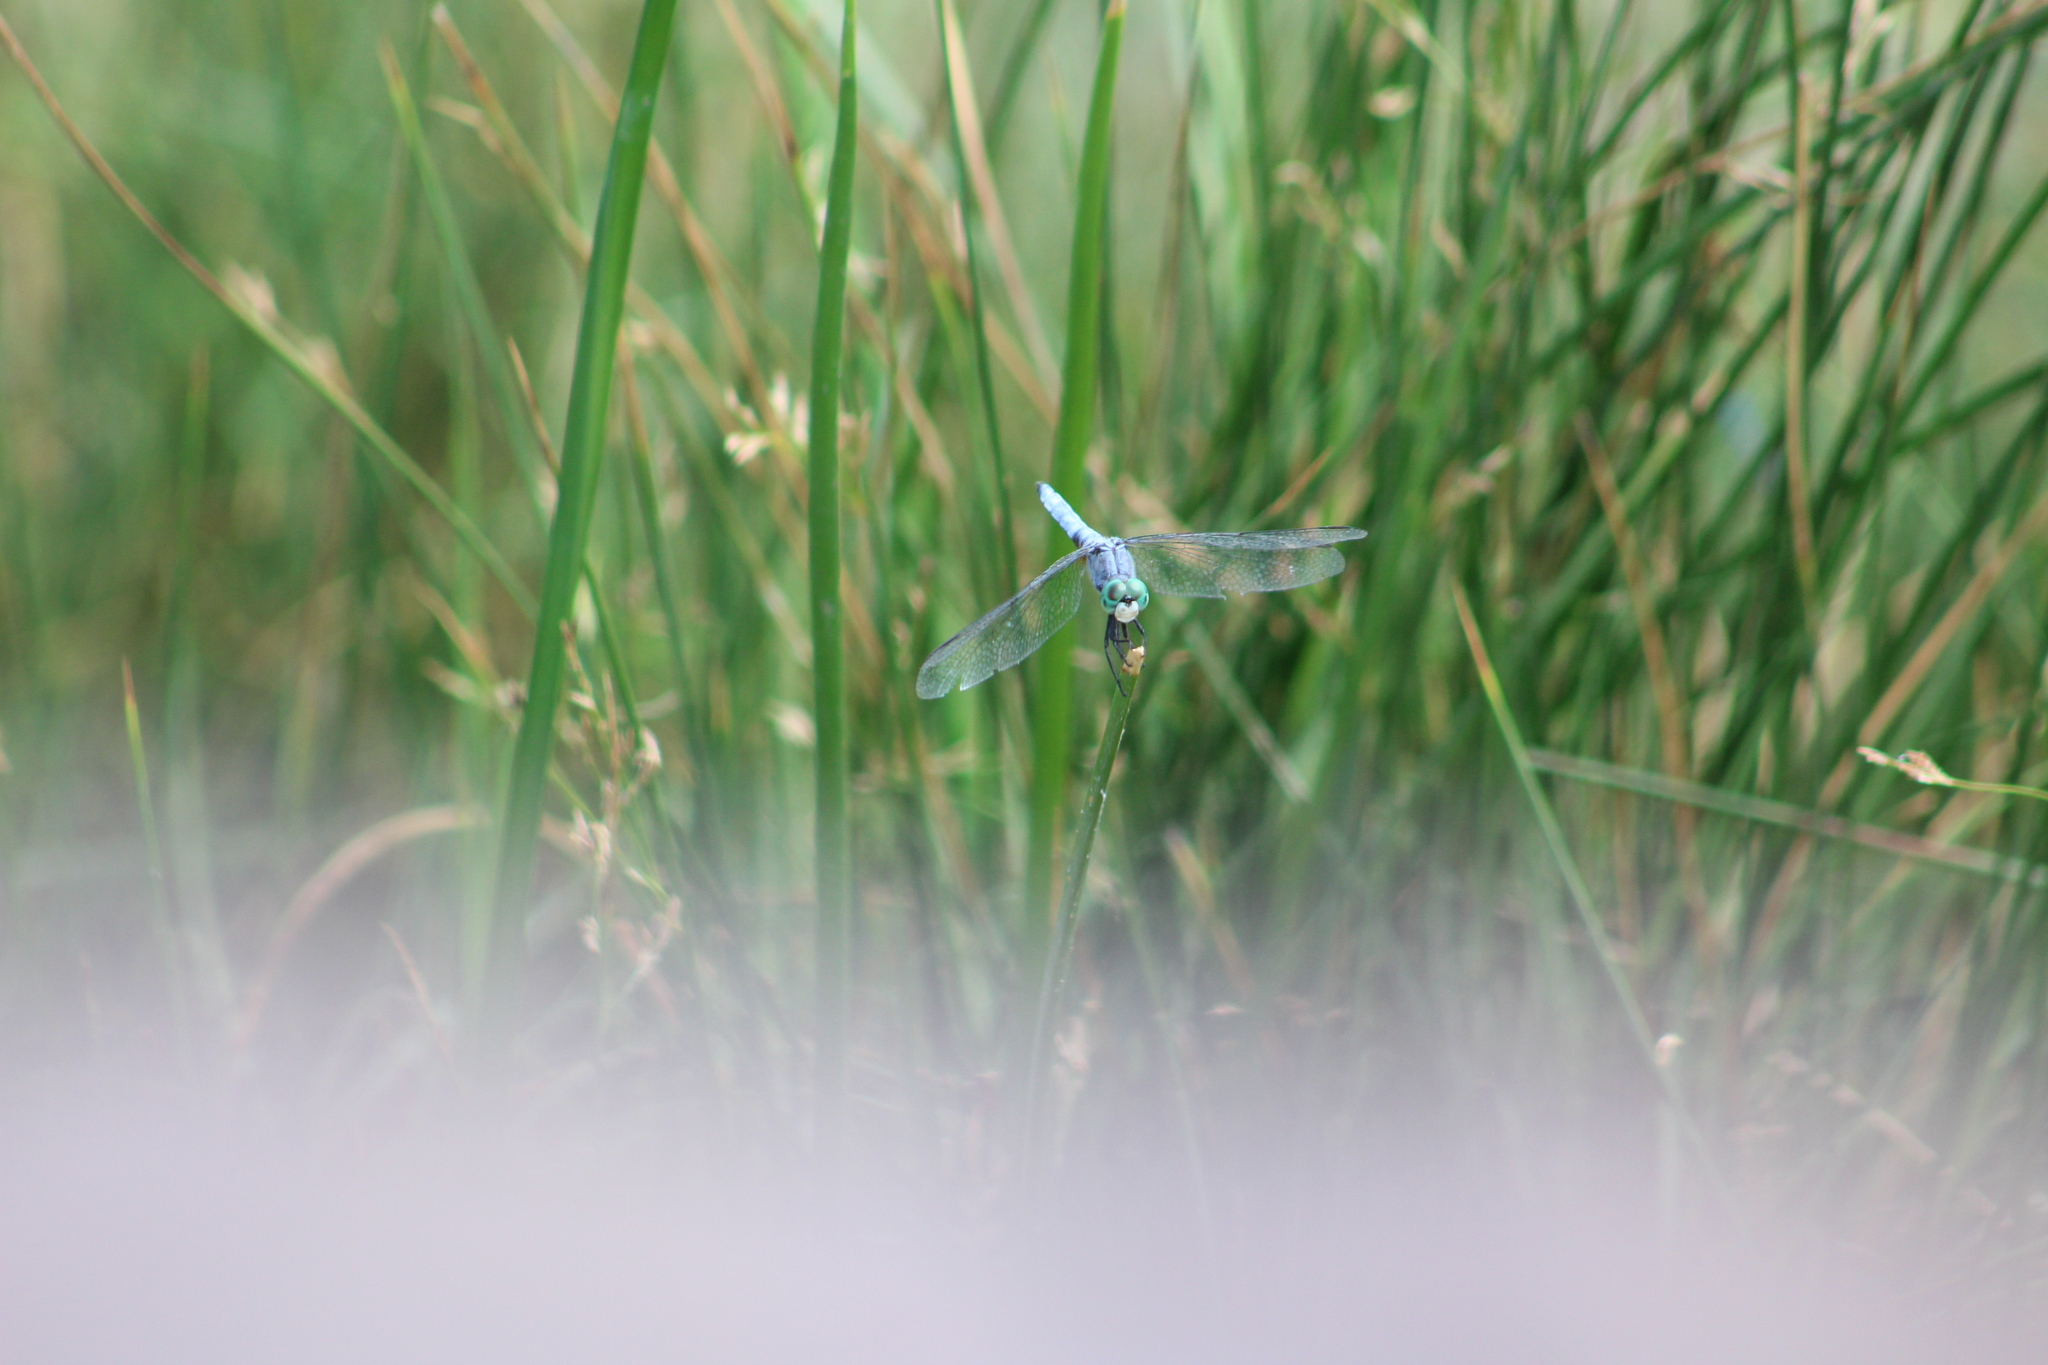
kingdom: Animalia
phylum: Arthropoda
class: Insecta
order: Odonata
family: Libellulidae
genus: Pachydiplax
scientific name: Pachydiplax longipennis
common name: Blue dasher
